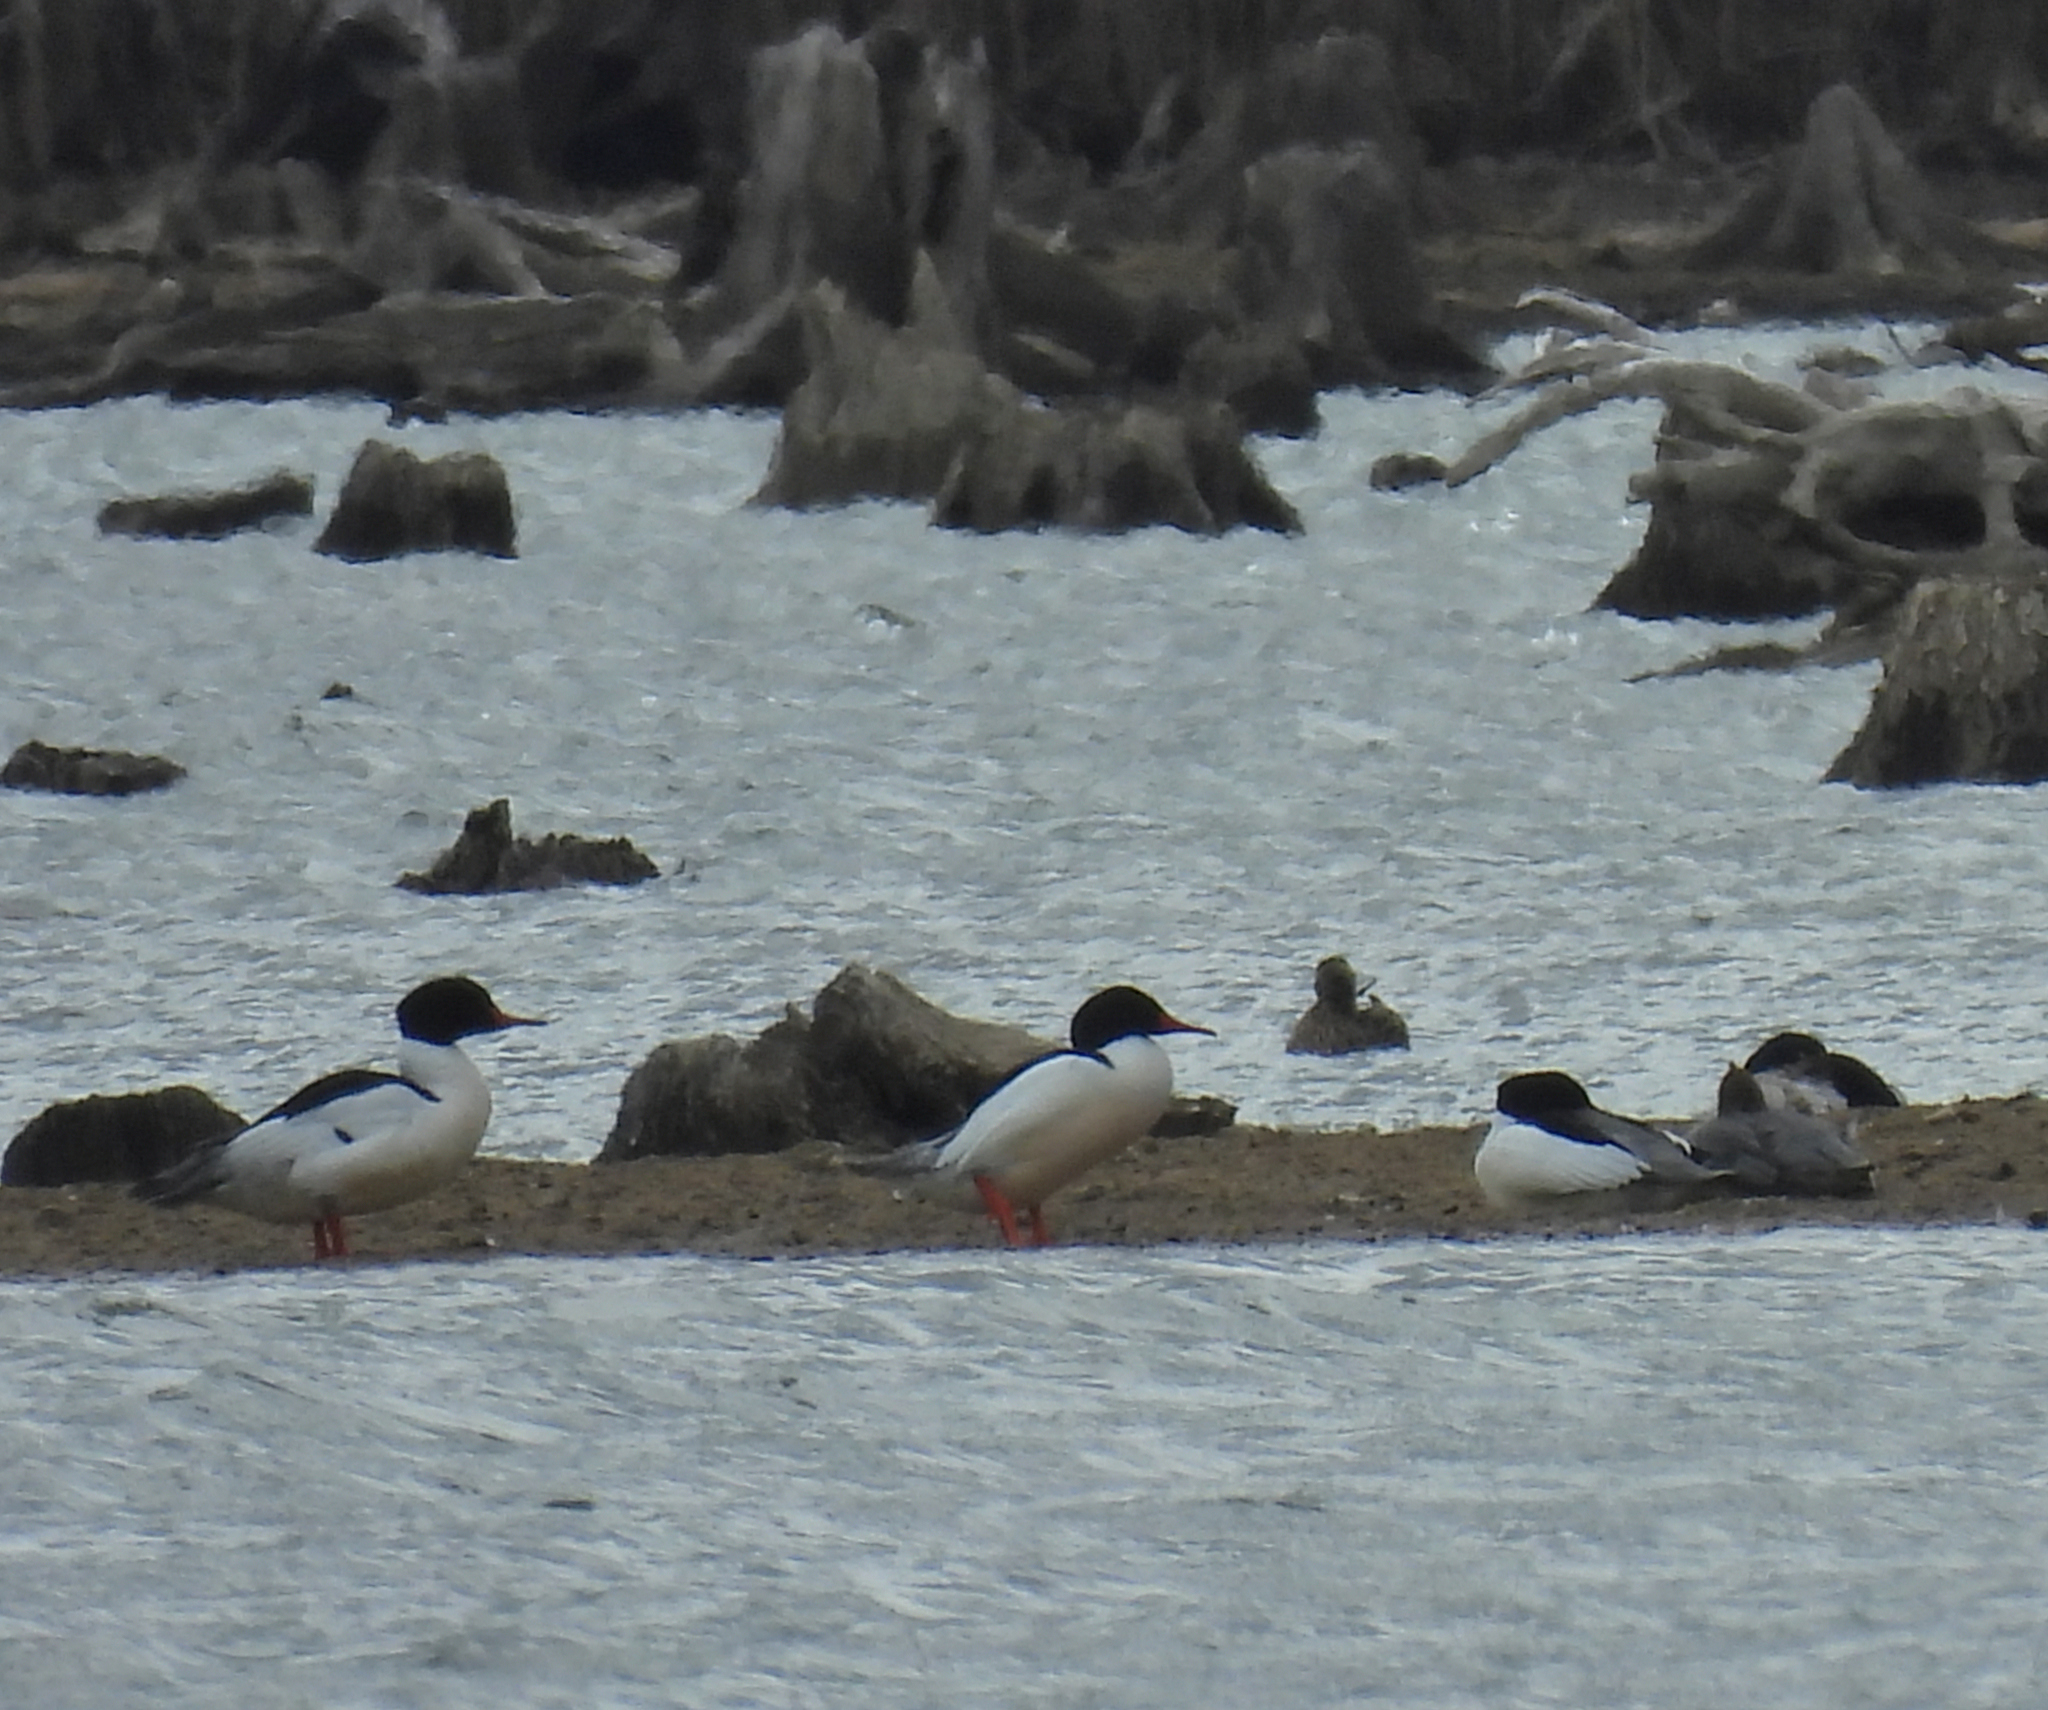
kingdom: Animalia
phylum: Chordata
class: Aves
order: Anseriformes
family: Anatidae
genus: Mergus
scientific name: Mergus merganser
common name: Common merganser
